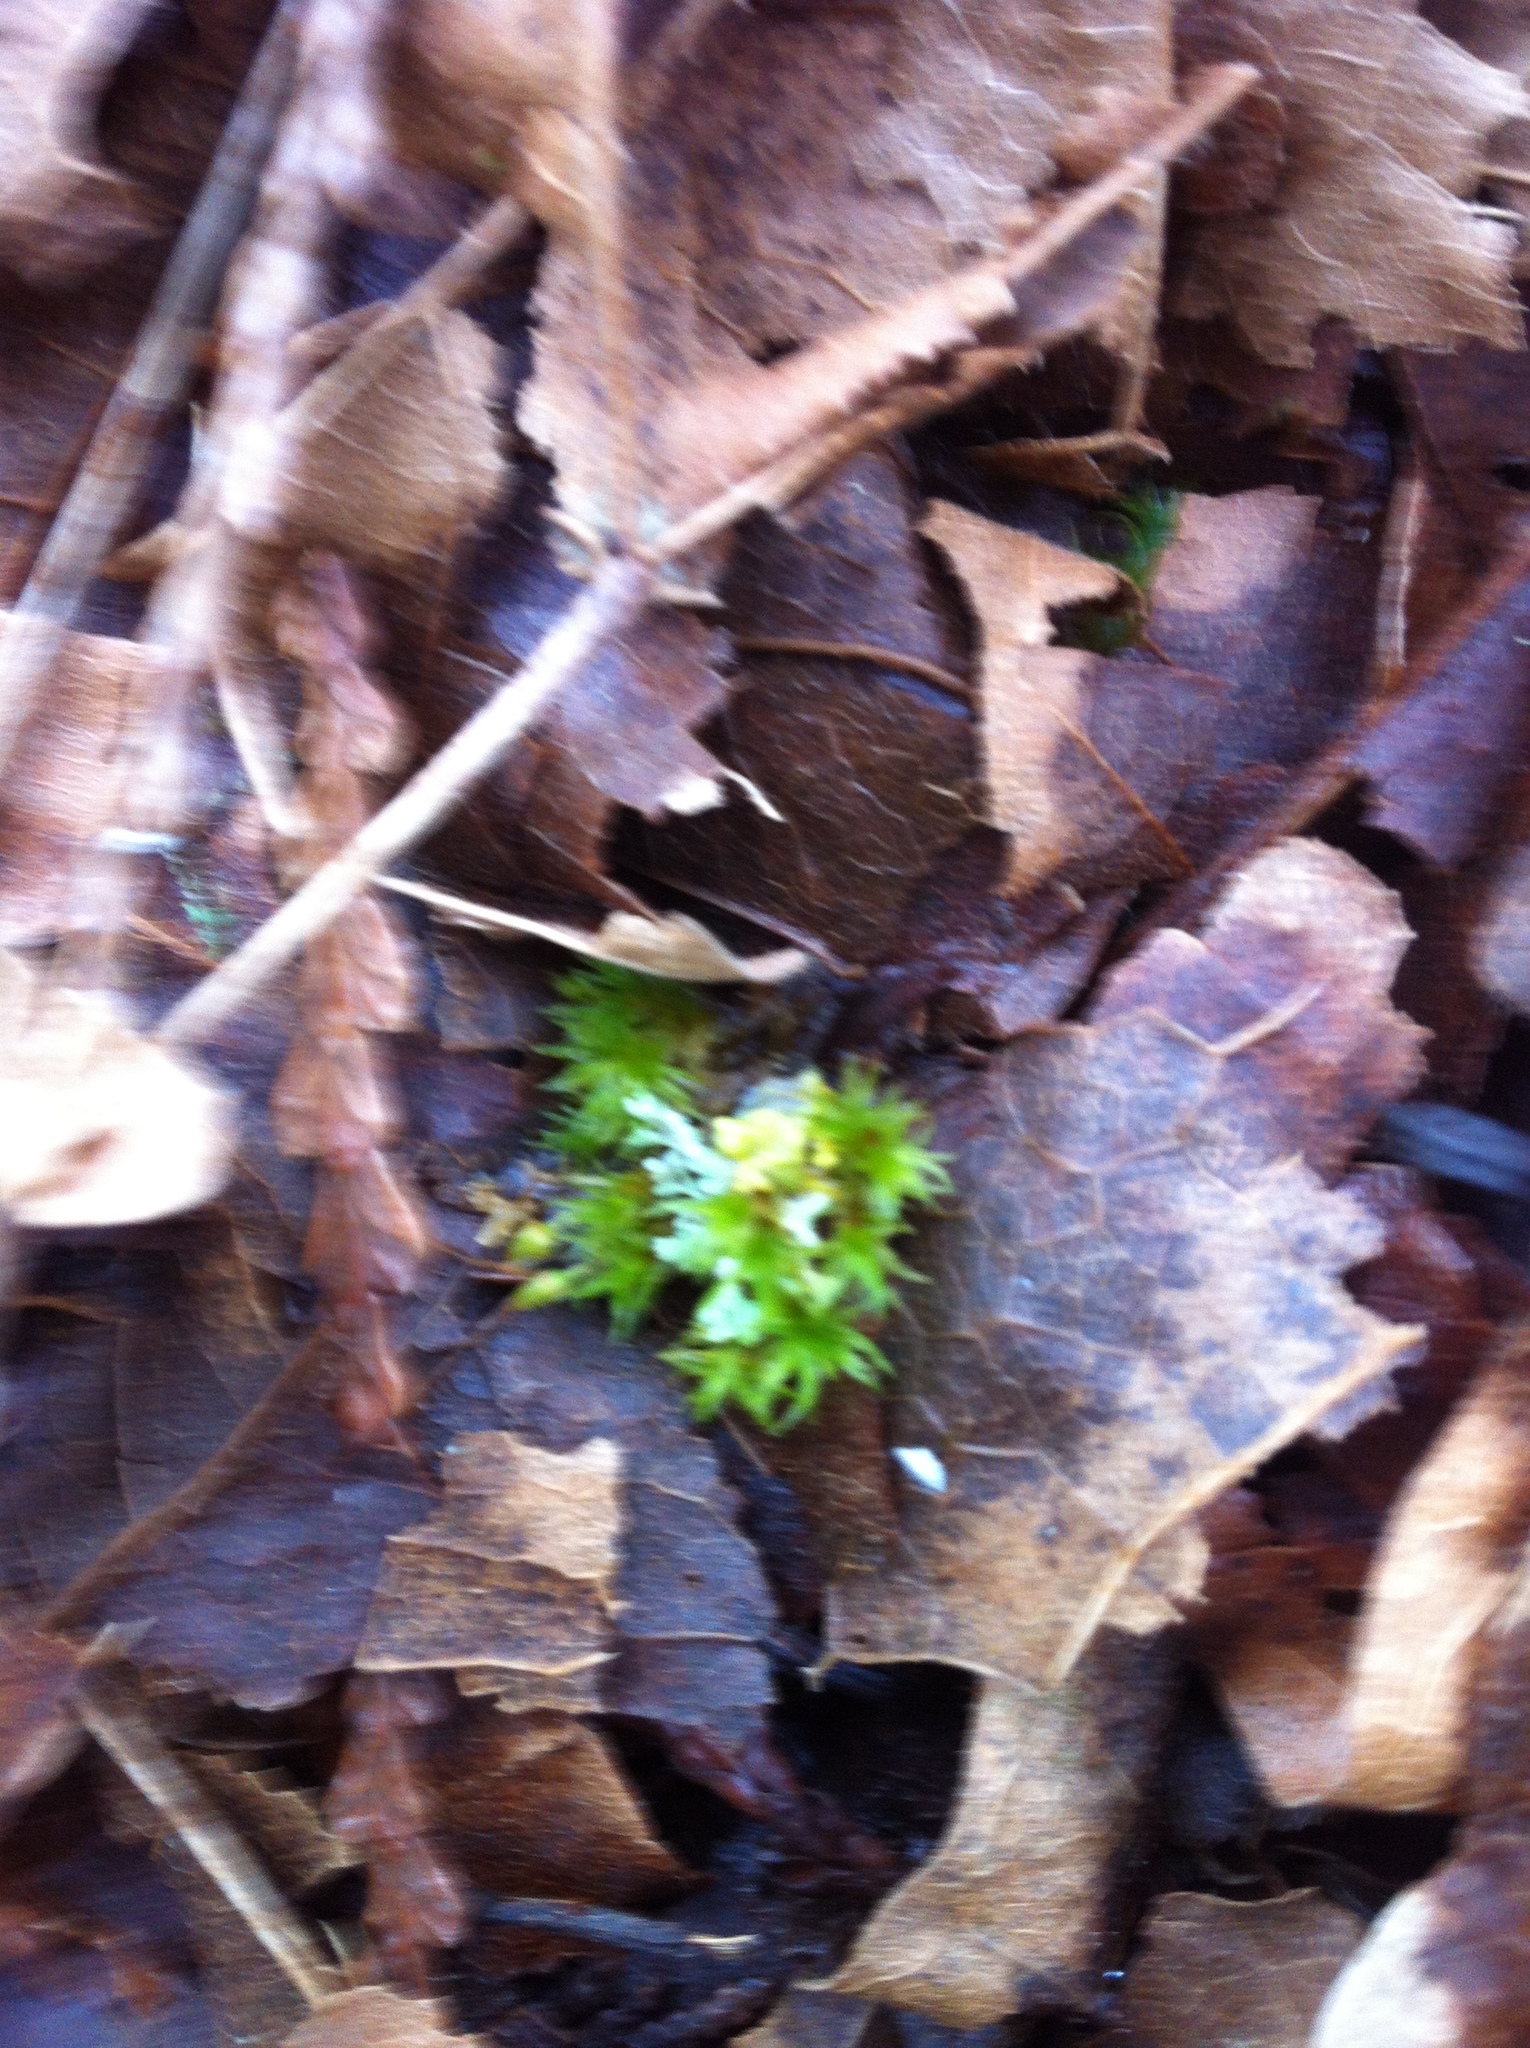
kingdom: Plantae
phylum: Bryophyta
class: Bryopsida
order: Orthotrichales
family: Orthotrichaceae
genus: Pulvigera
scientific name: Pulvigera lyellii
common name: Lyell's bristle-moss
